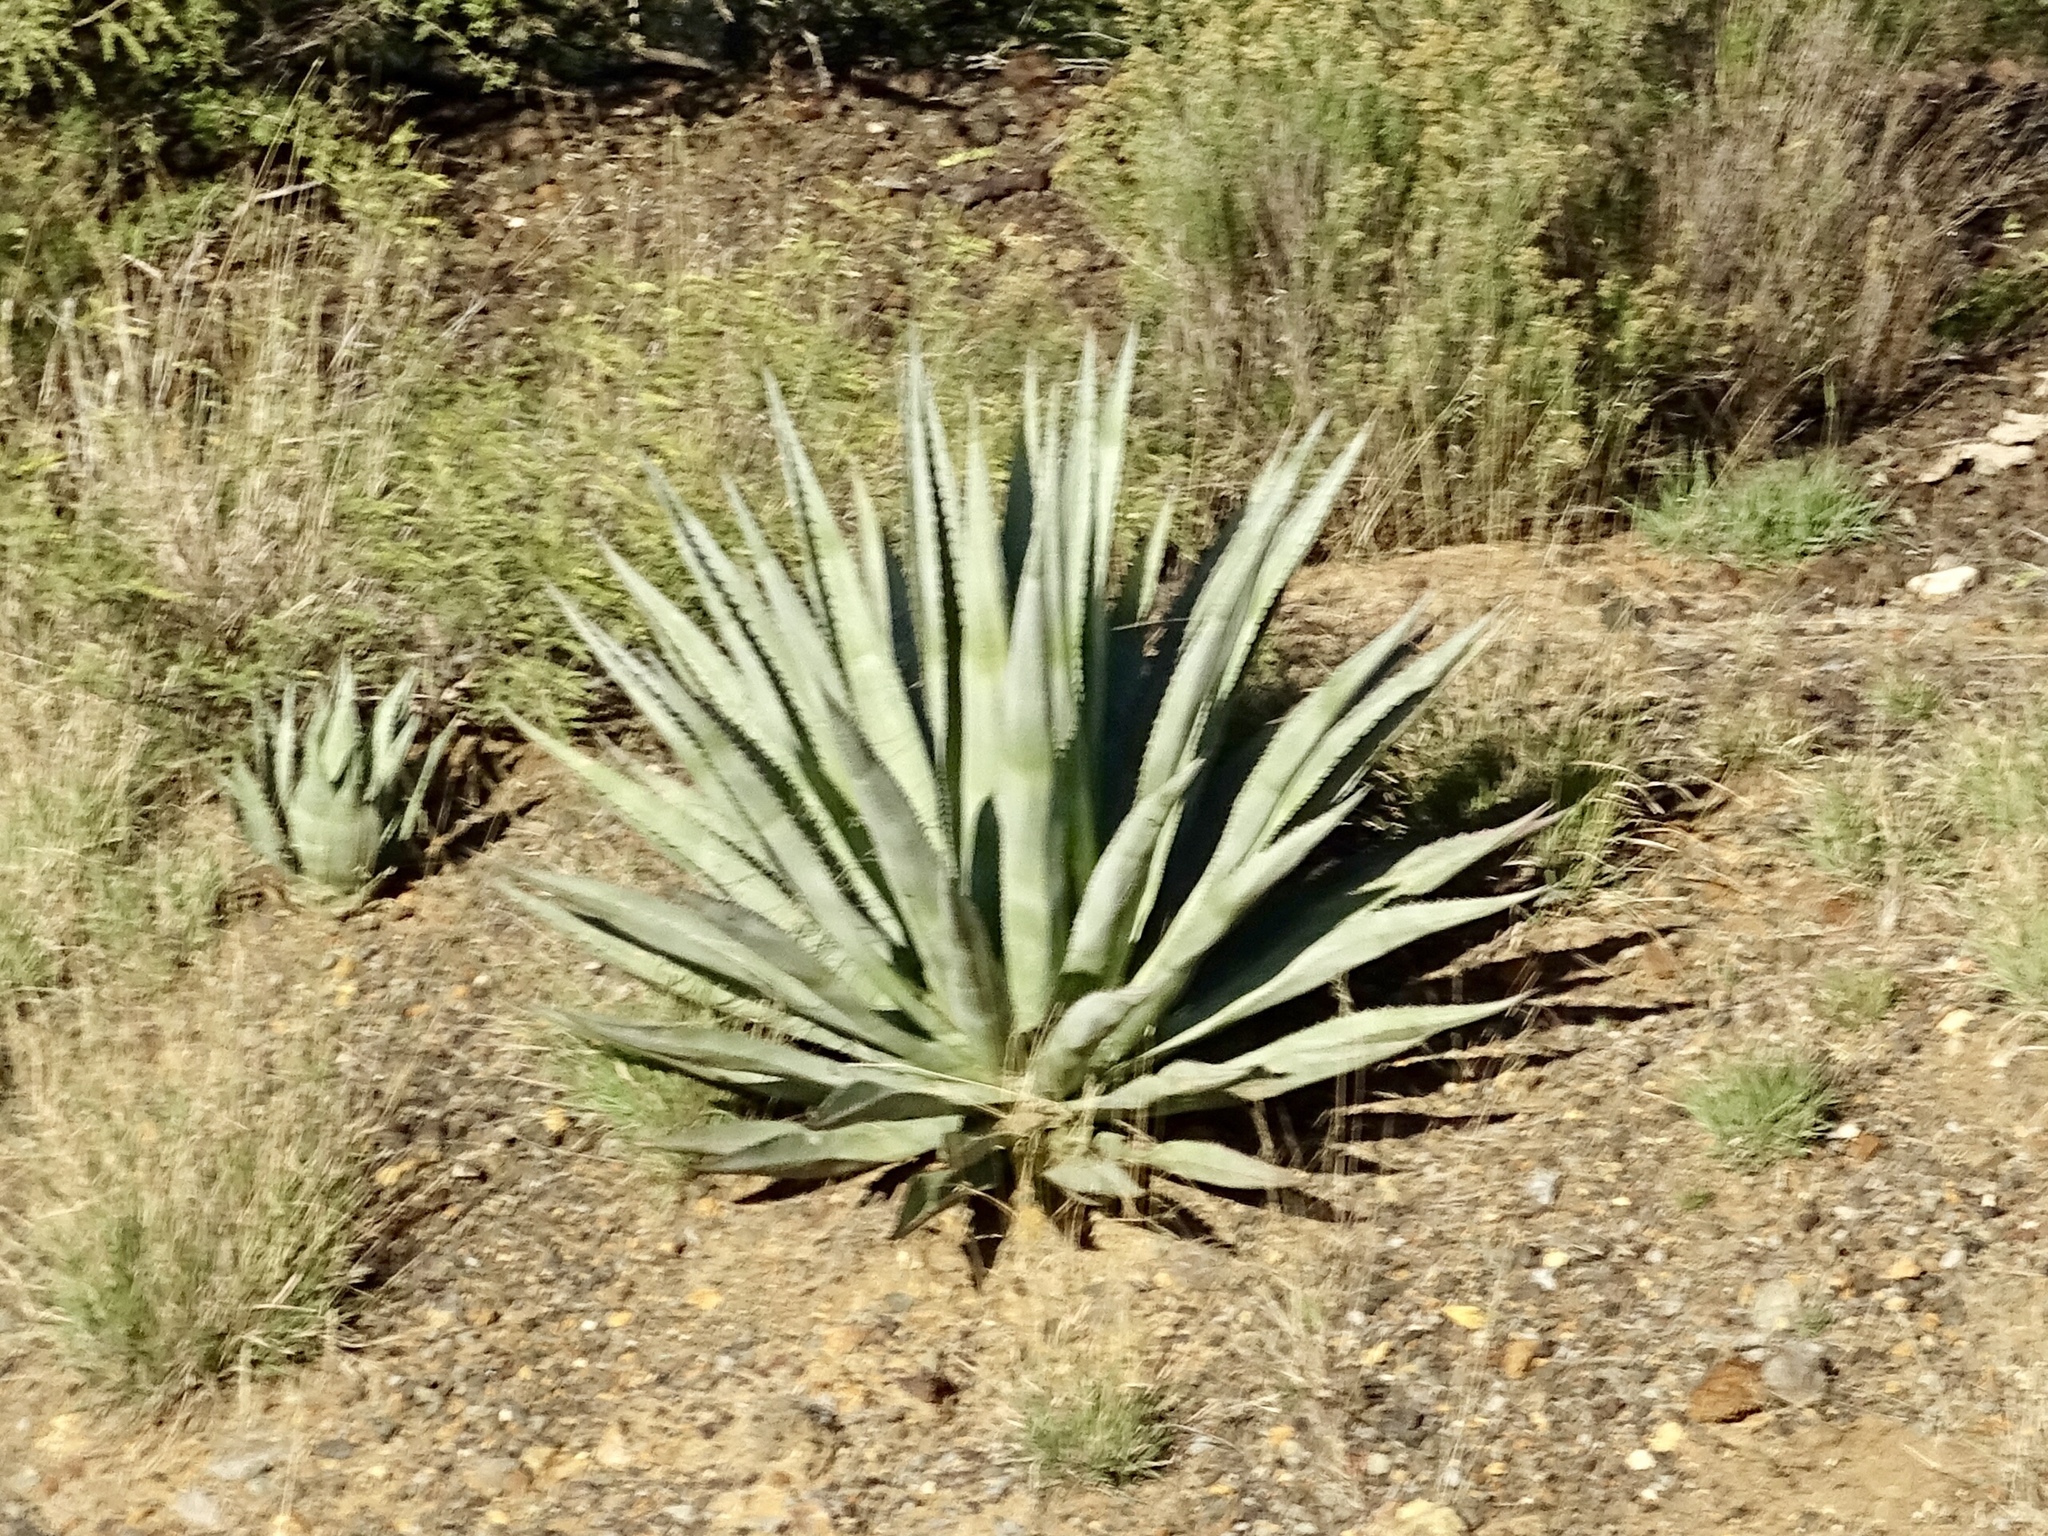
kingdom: Plantae
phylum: Tracheophyta
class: Liliopsida
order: Asparagales
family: Asparagaceae
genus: Agave
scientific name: Agave palmeri
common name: Palmer agave
